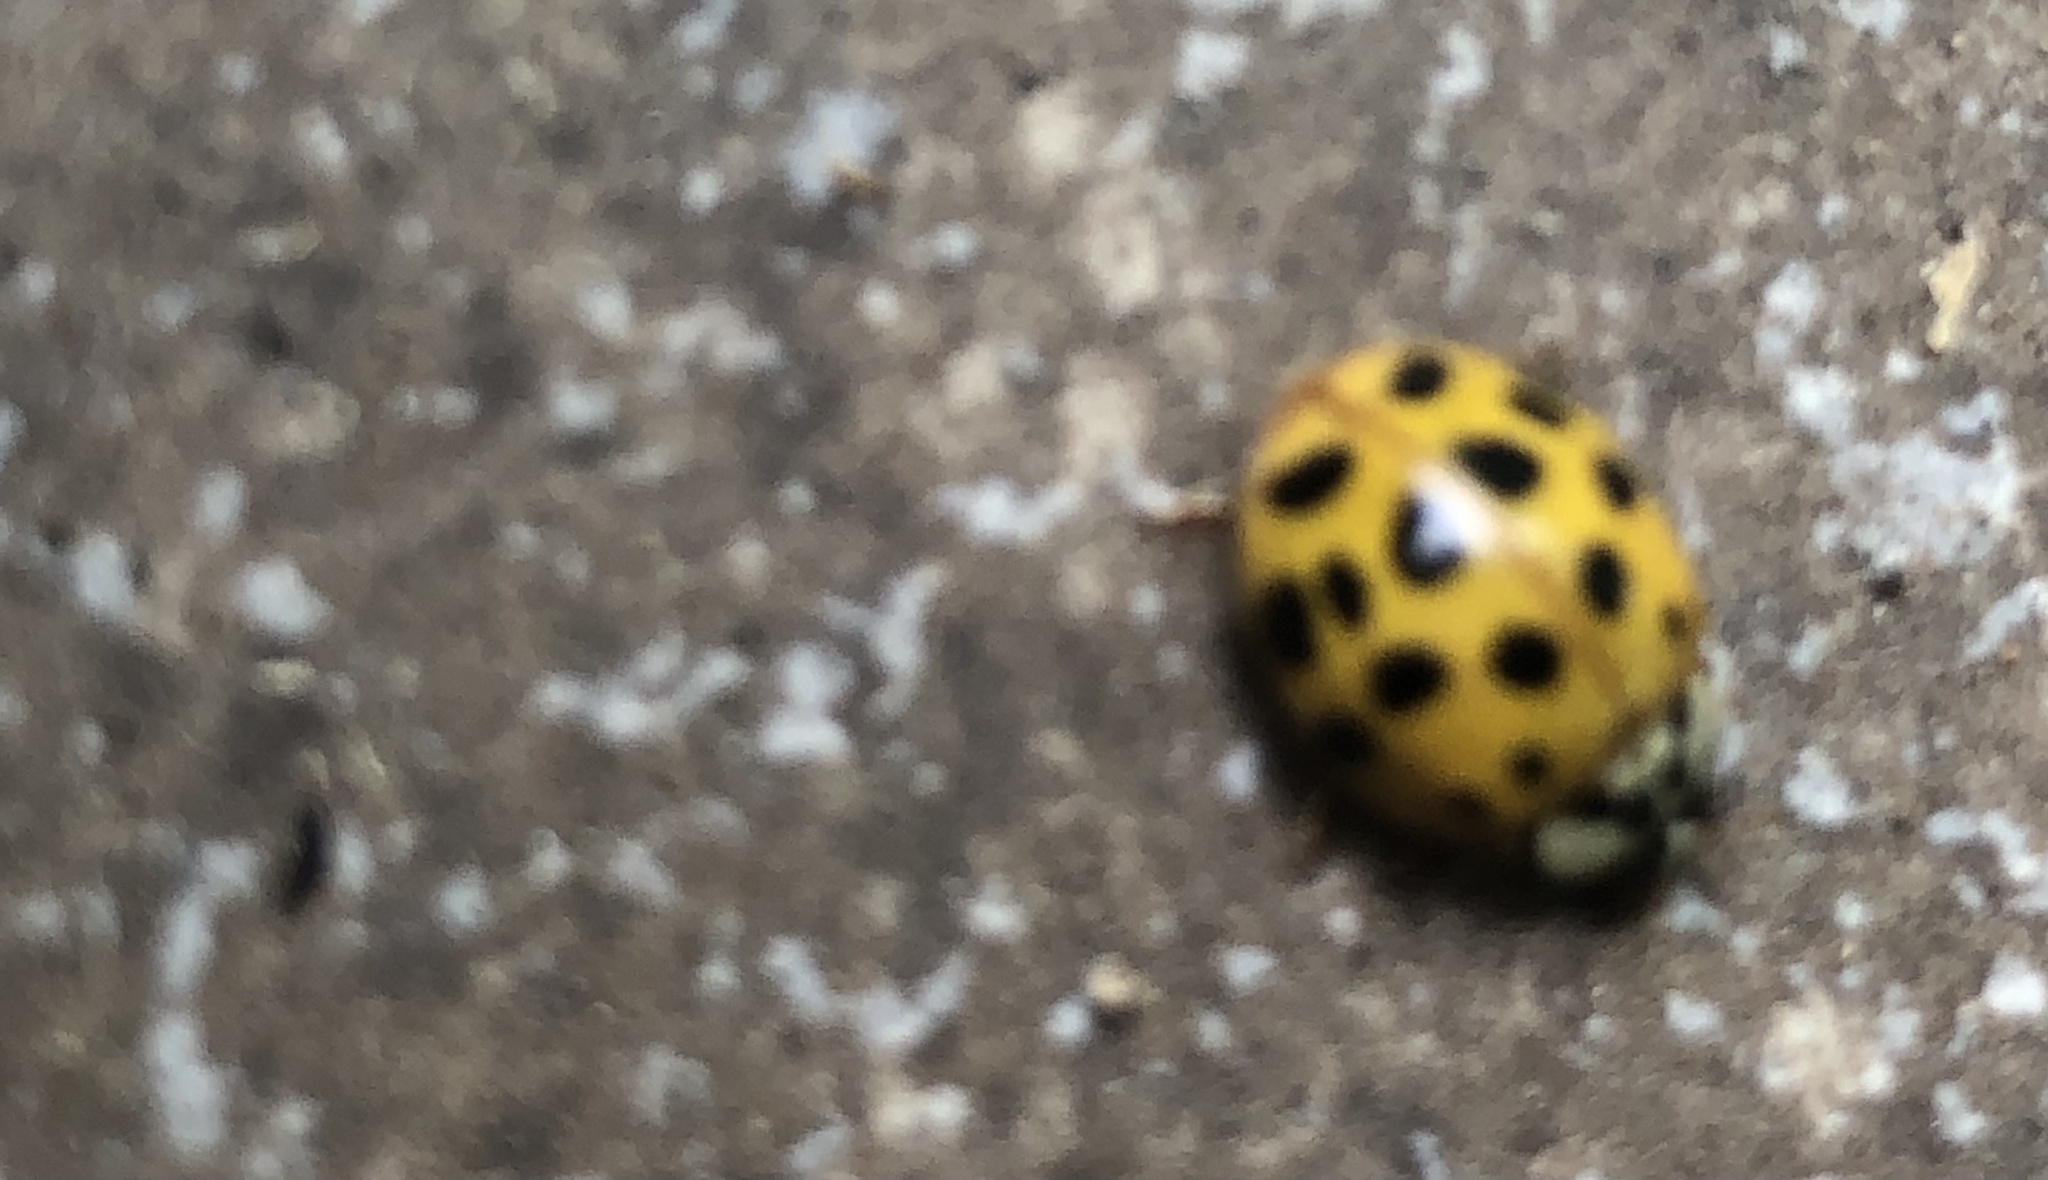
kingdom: Animalia
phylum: Arthropoda
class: Insecta
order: Coleoptera
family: Coccinellidae
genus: Harmonia
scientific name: Harmonia axyridis
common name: Harlequin ladybird
